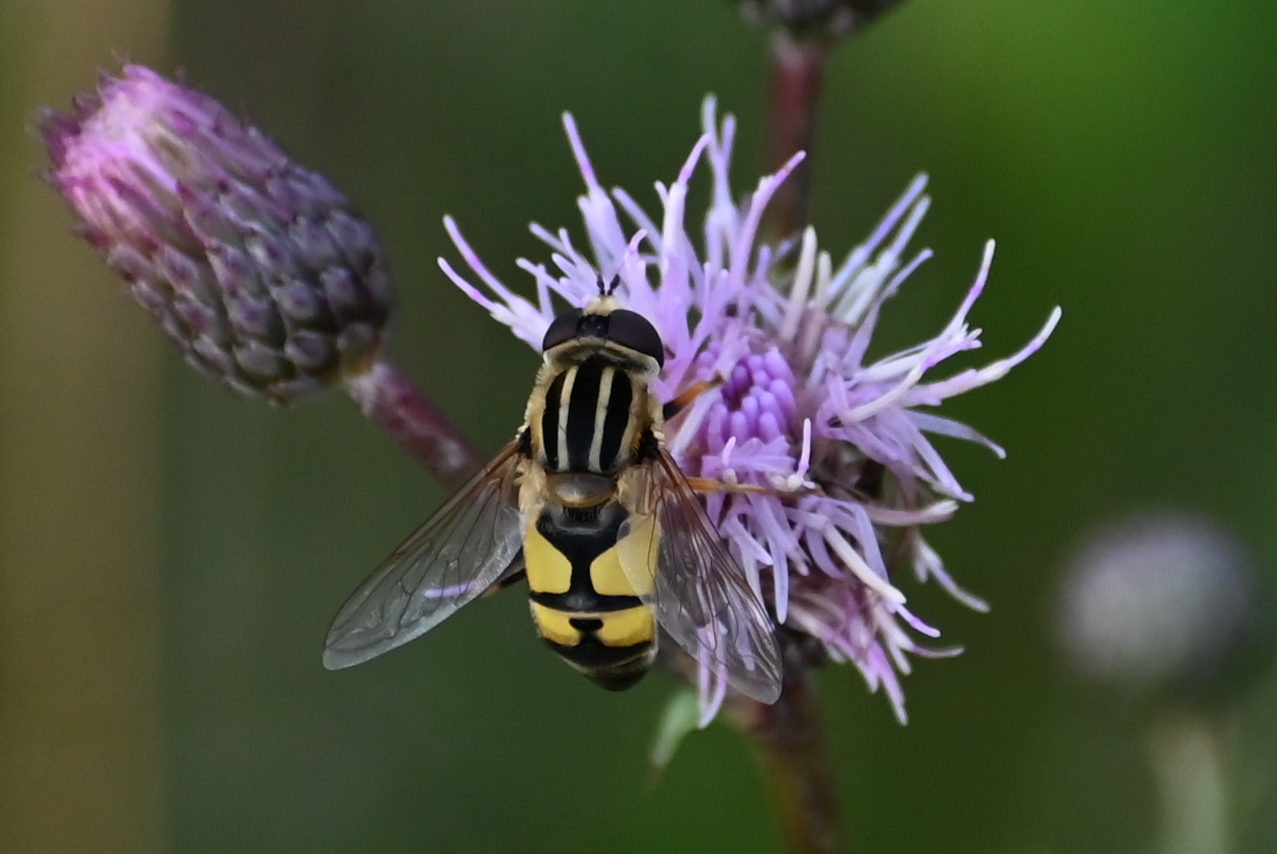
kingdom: Animalia
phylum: Arthropoda
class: Insecta
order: Diptera
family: Syrphidae
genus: Helophilus
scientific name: Helophilus trivittatus
